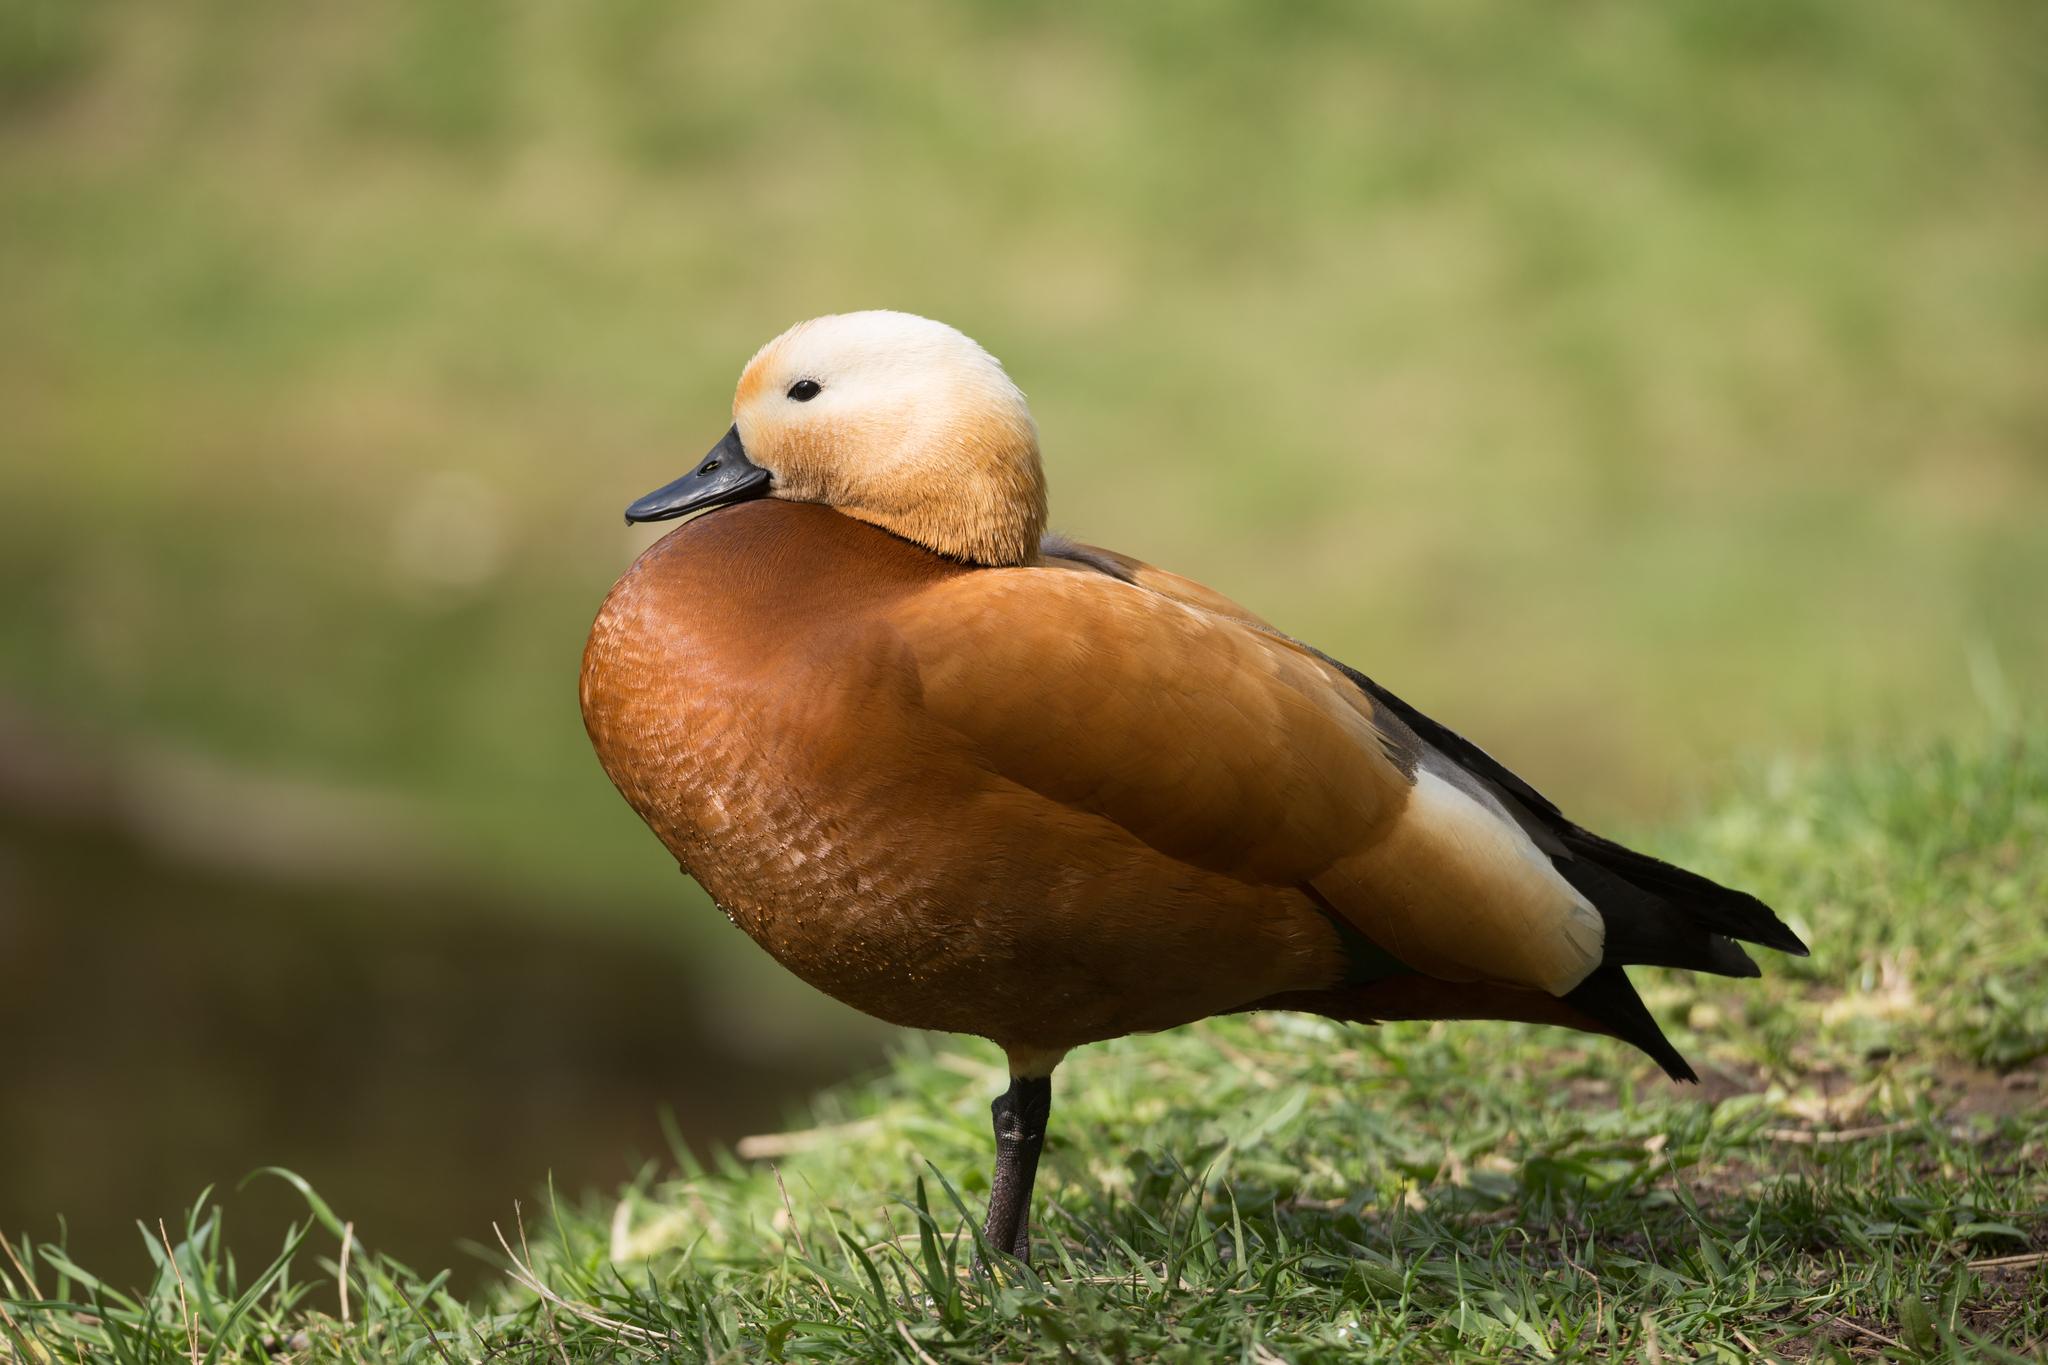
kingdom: Animalia
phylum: Chordata
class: Aves
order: Anseriformes
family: Anatidae
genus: Tadorna
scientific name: Tadorna ferruginea
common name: Ruddy shelduck
